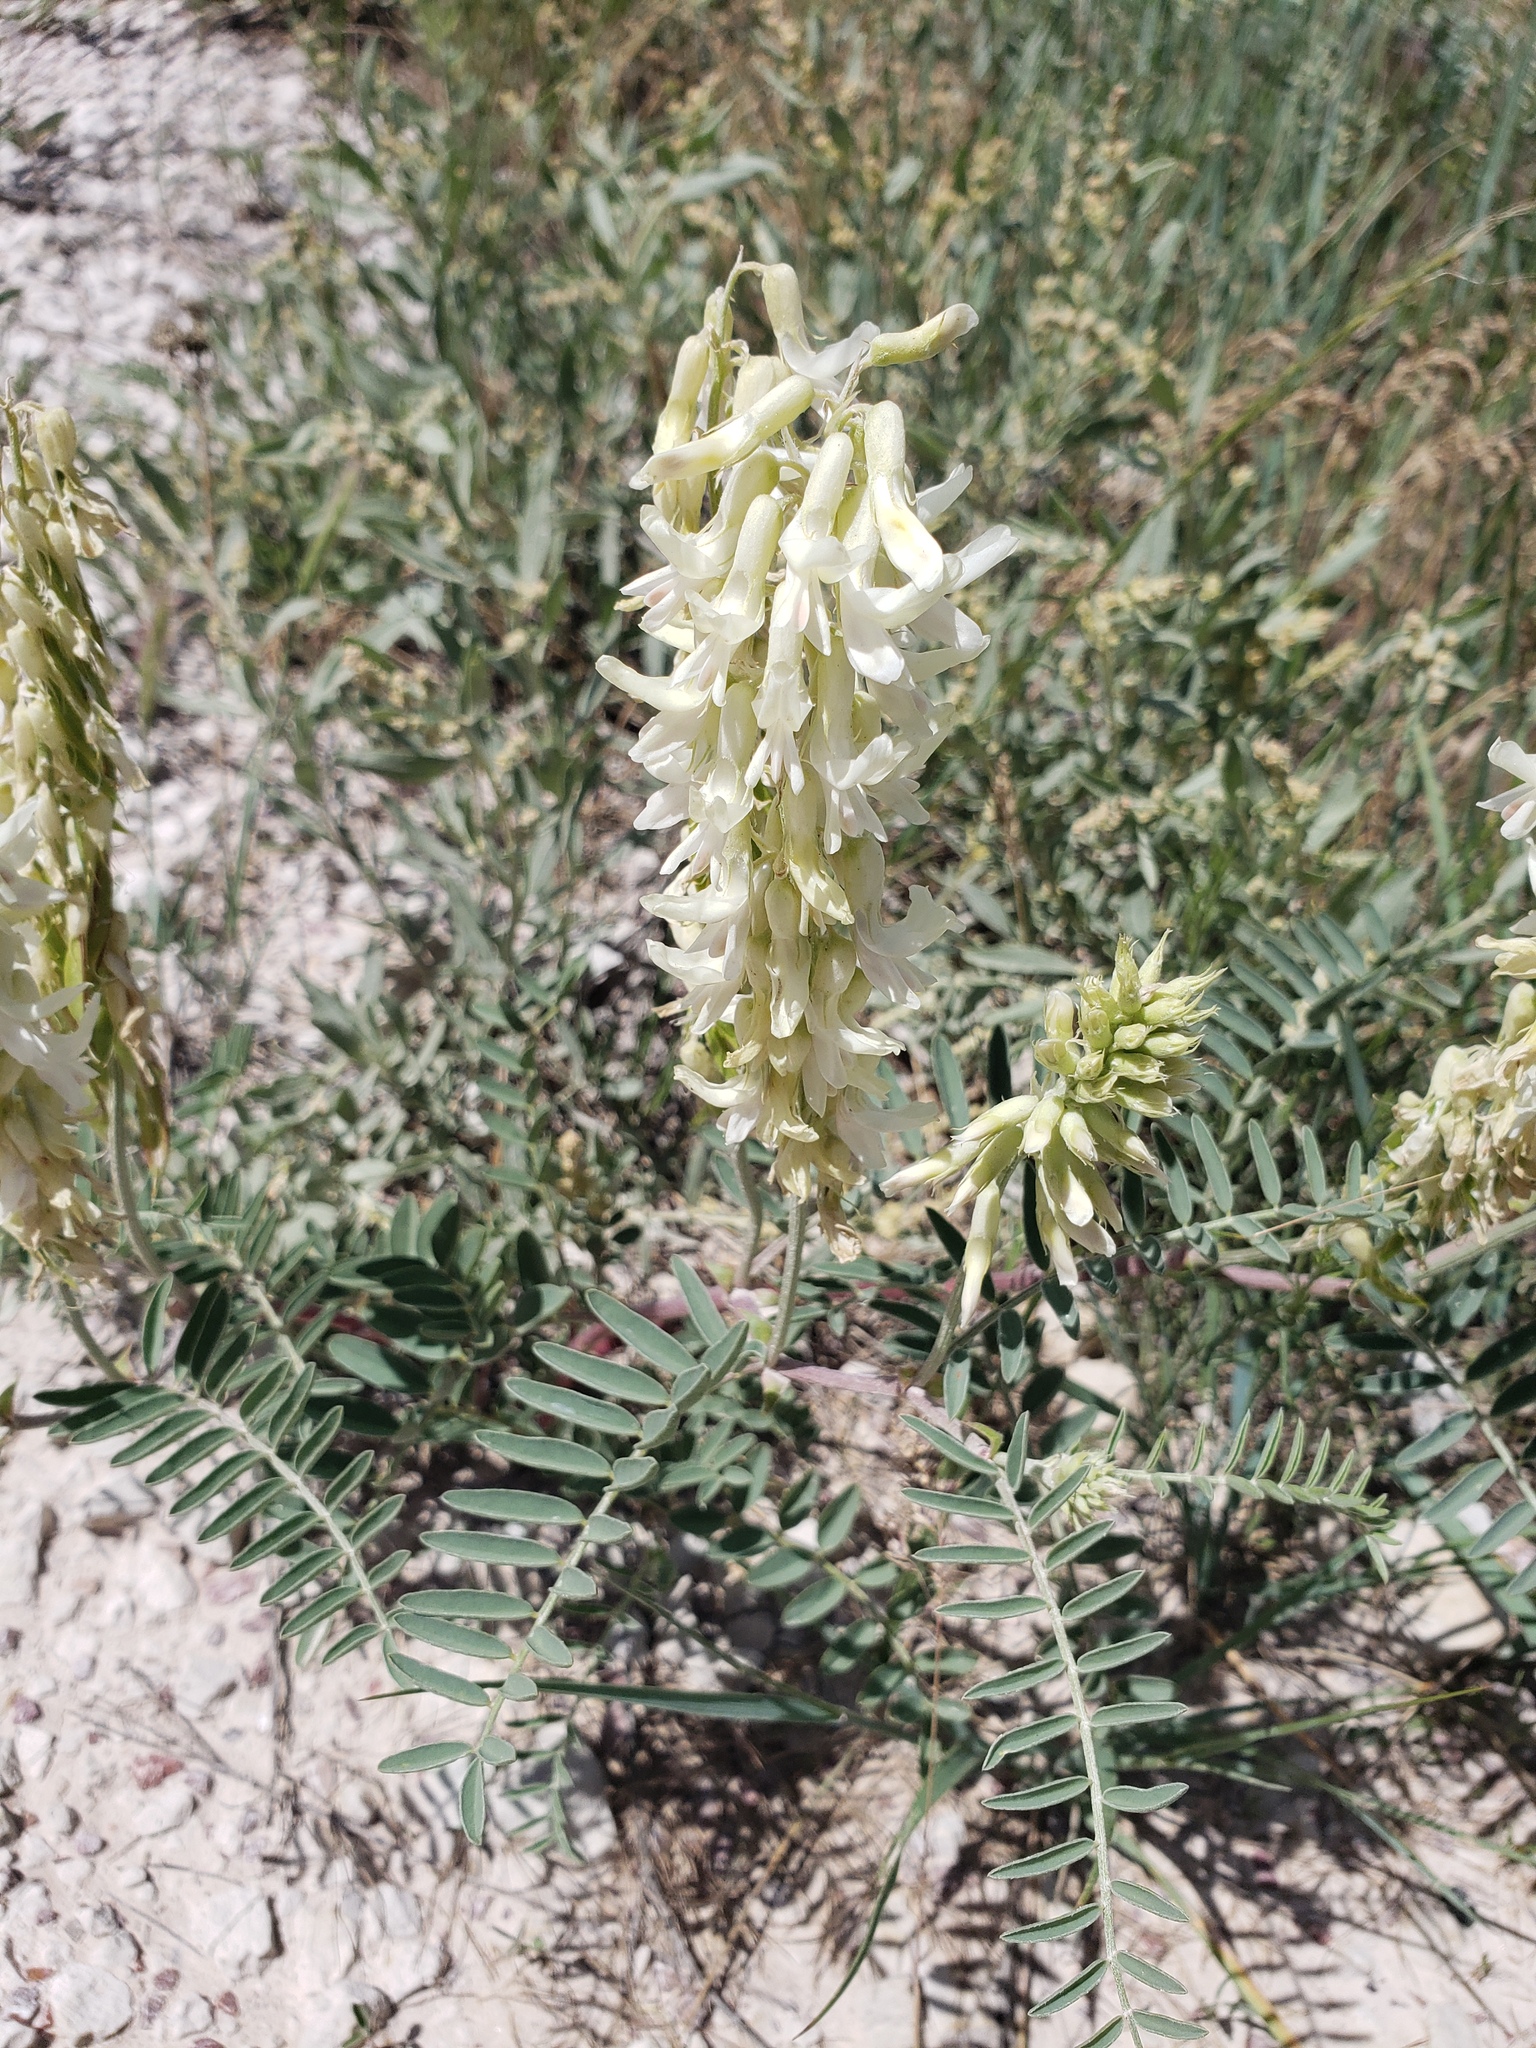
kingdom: Plantae
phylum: Tracheophyta
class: Magnoliopsida
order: Fabales
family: Fabaceae
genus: Astragalus
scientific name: Astragalus racemosus
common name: Alkali milk-vetch
